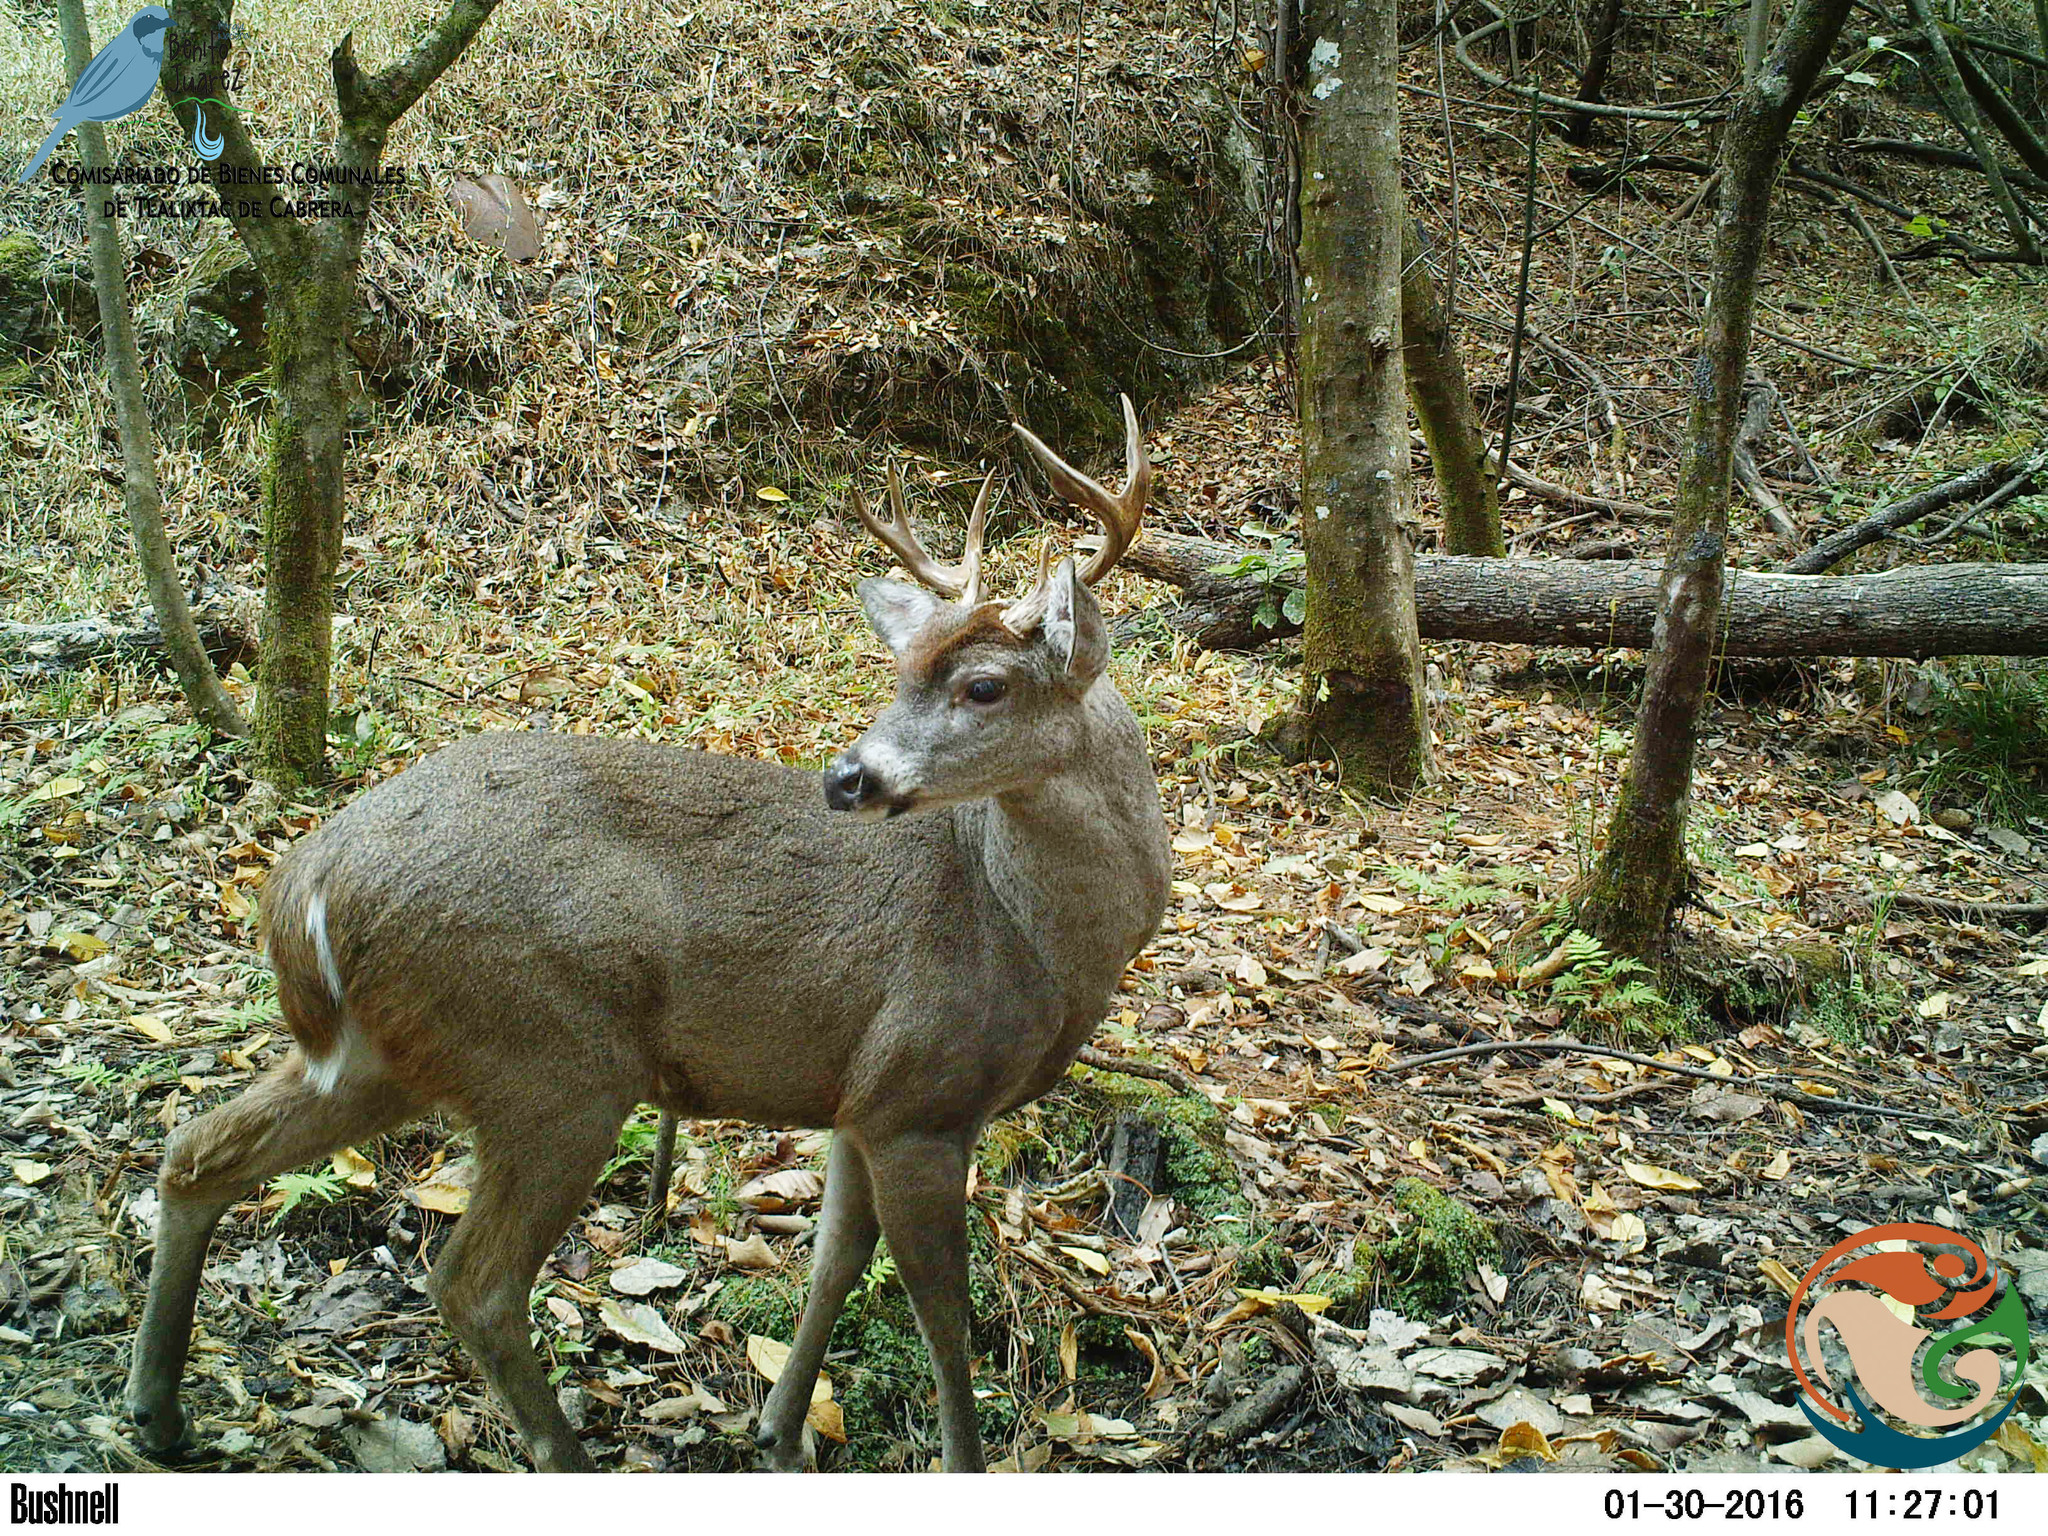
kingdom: Animalia
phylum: Chordata
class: Mammalia
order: Artiodactyla
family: Cervidae
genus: Odocoileus
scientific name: Odocoileus virginianus
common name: White-tailed deer
